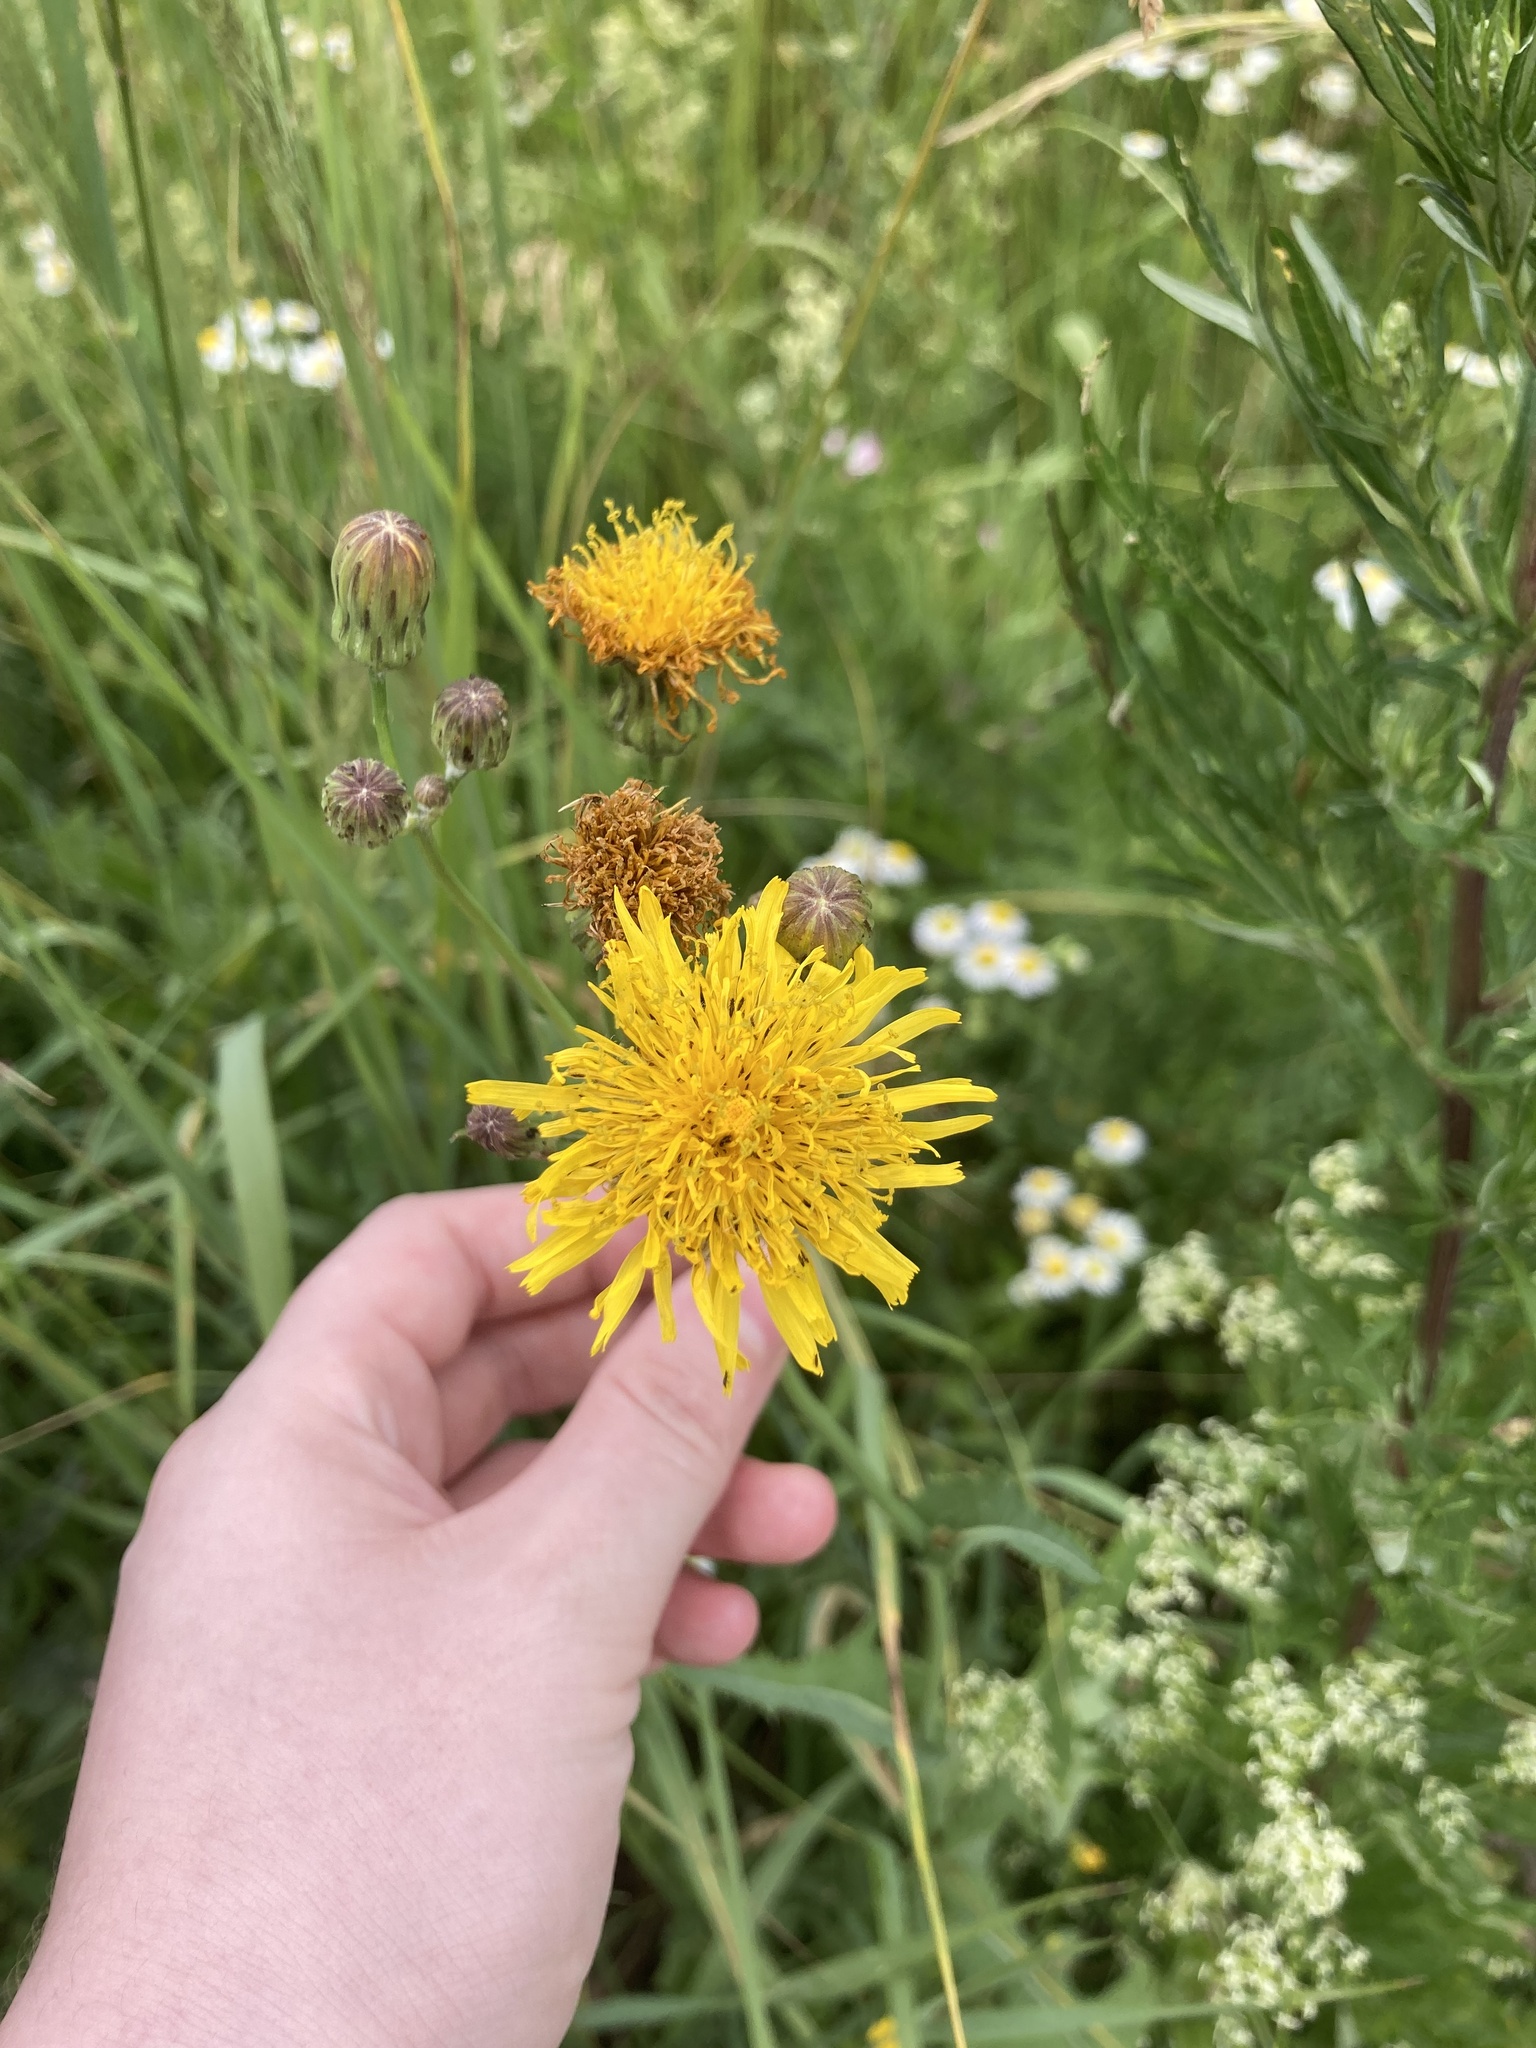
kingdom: Plantae
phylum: Tracheophyta
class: Magnoliopsida
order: Asterales
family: Asteraceae
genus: Sonchus
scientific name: Sonchus arvensis
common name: Perennial sow-thistle
